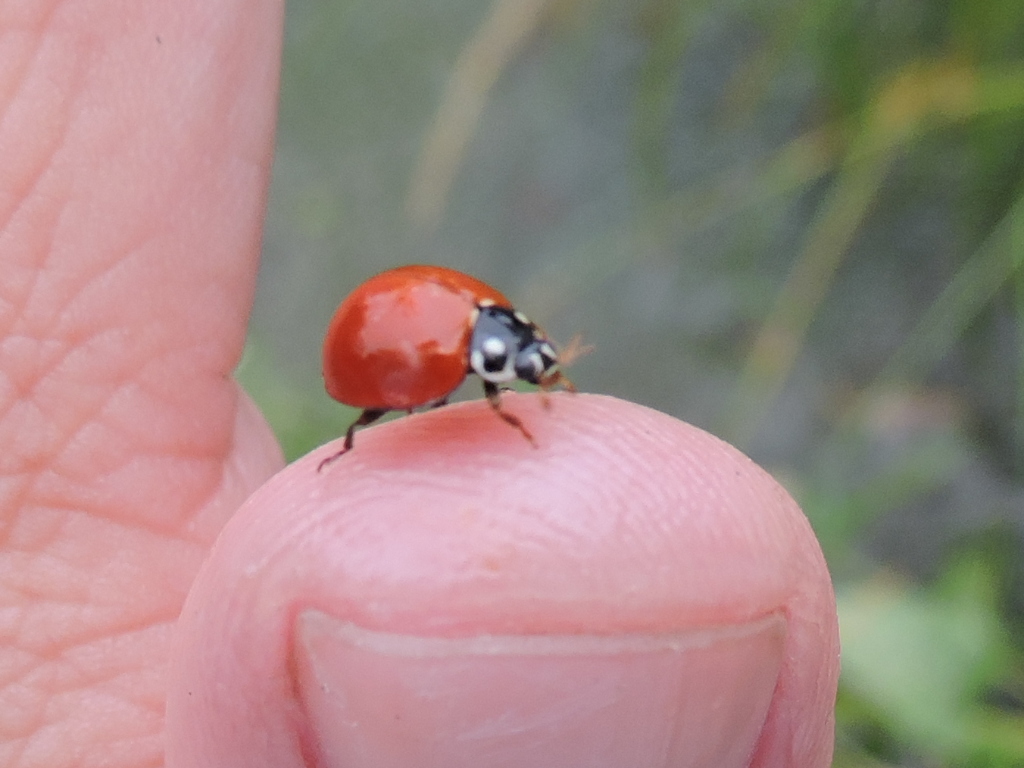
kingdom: Animalia
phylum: Arthropoda
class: Insecta
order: Coleoptera
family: Coccinellidae
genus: Cycloneda
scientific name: Cycloneda sanguinea
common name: Ladybird beetle
